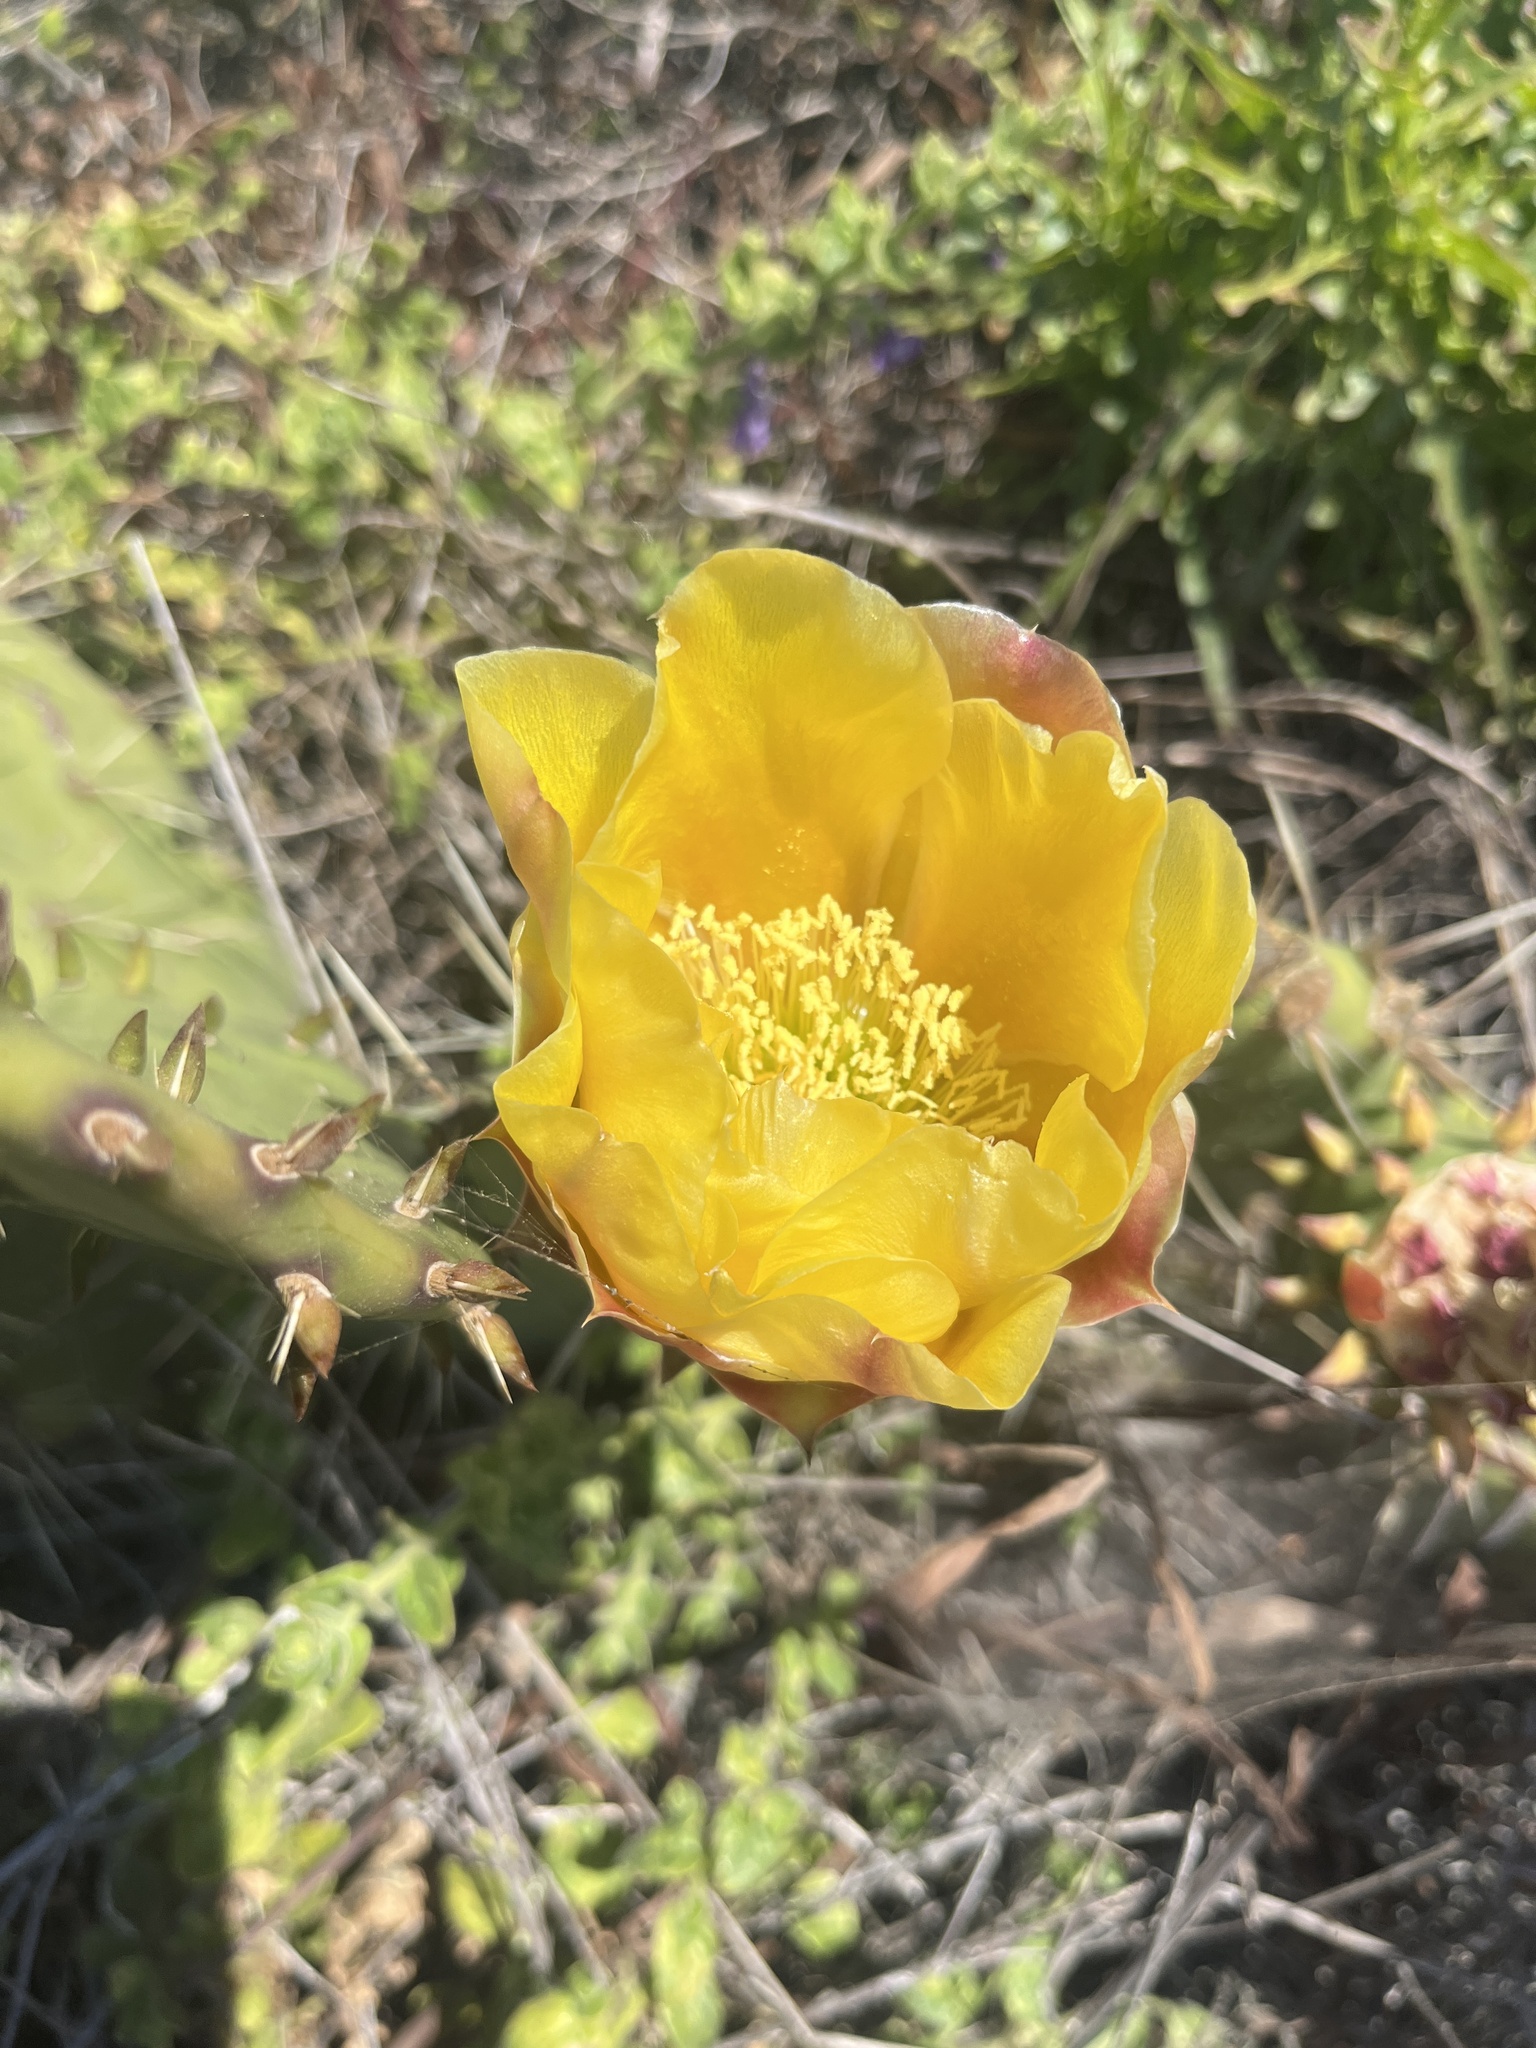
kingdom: Plantae
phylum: Tracheophyta
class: Magnoliopsida
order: Caryophyllales
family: Cactaceae
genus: Opuntia
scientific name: Opuntia littoralis
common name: Coastal prickly-pear
